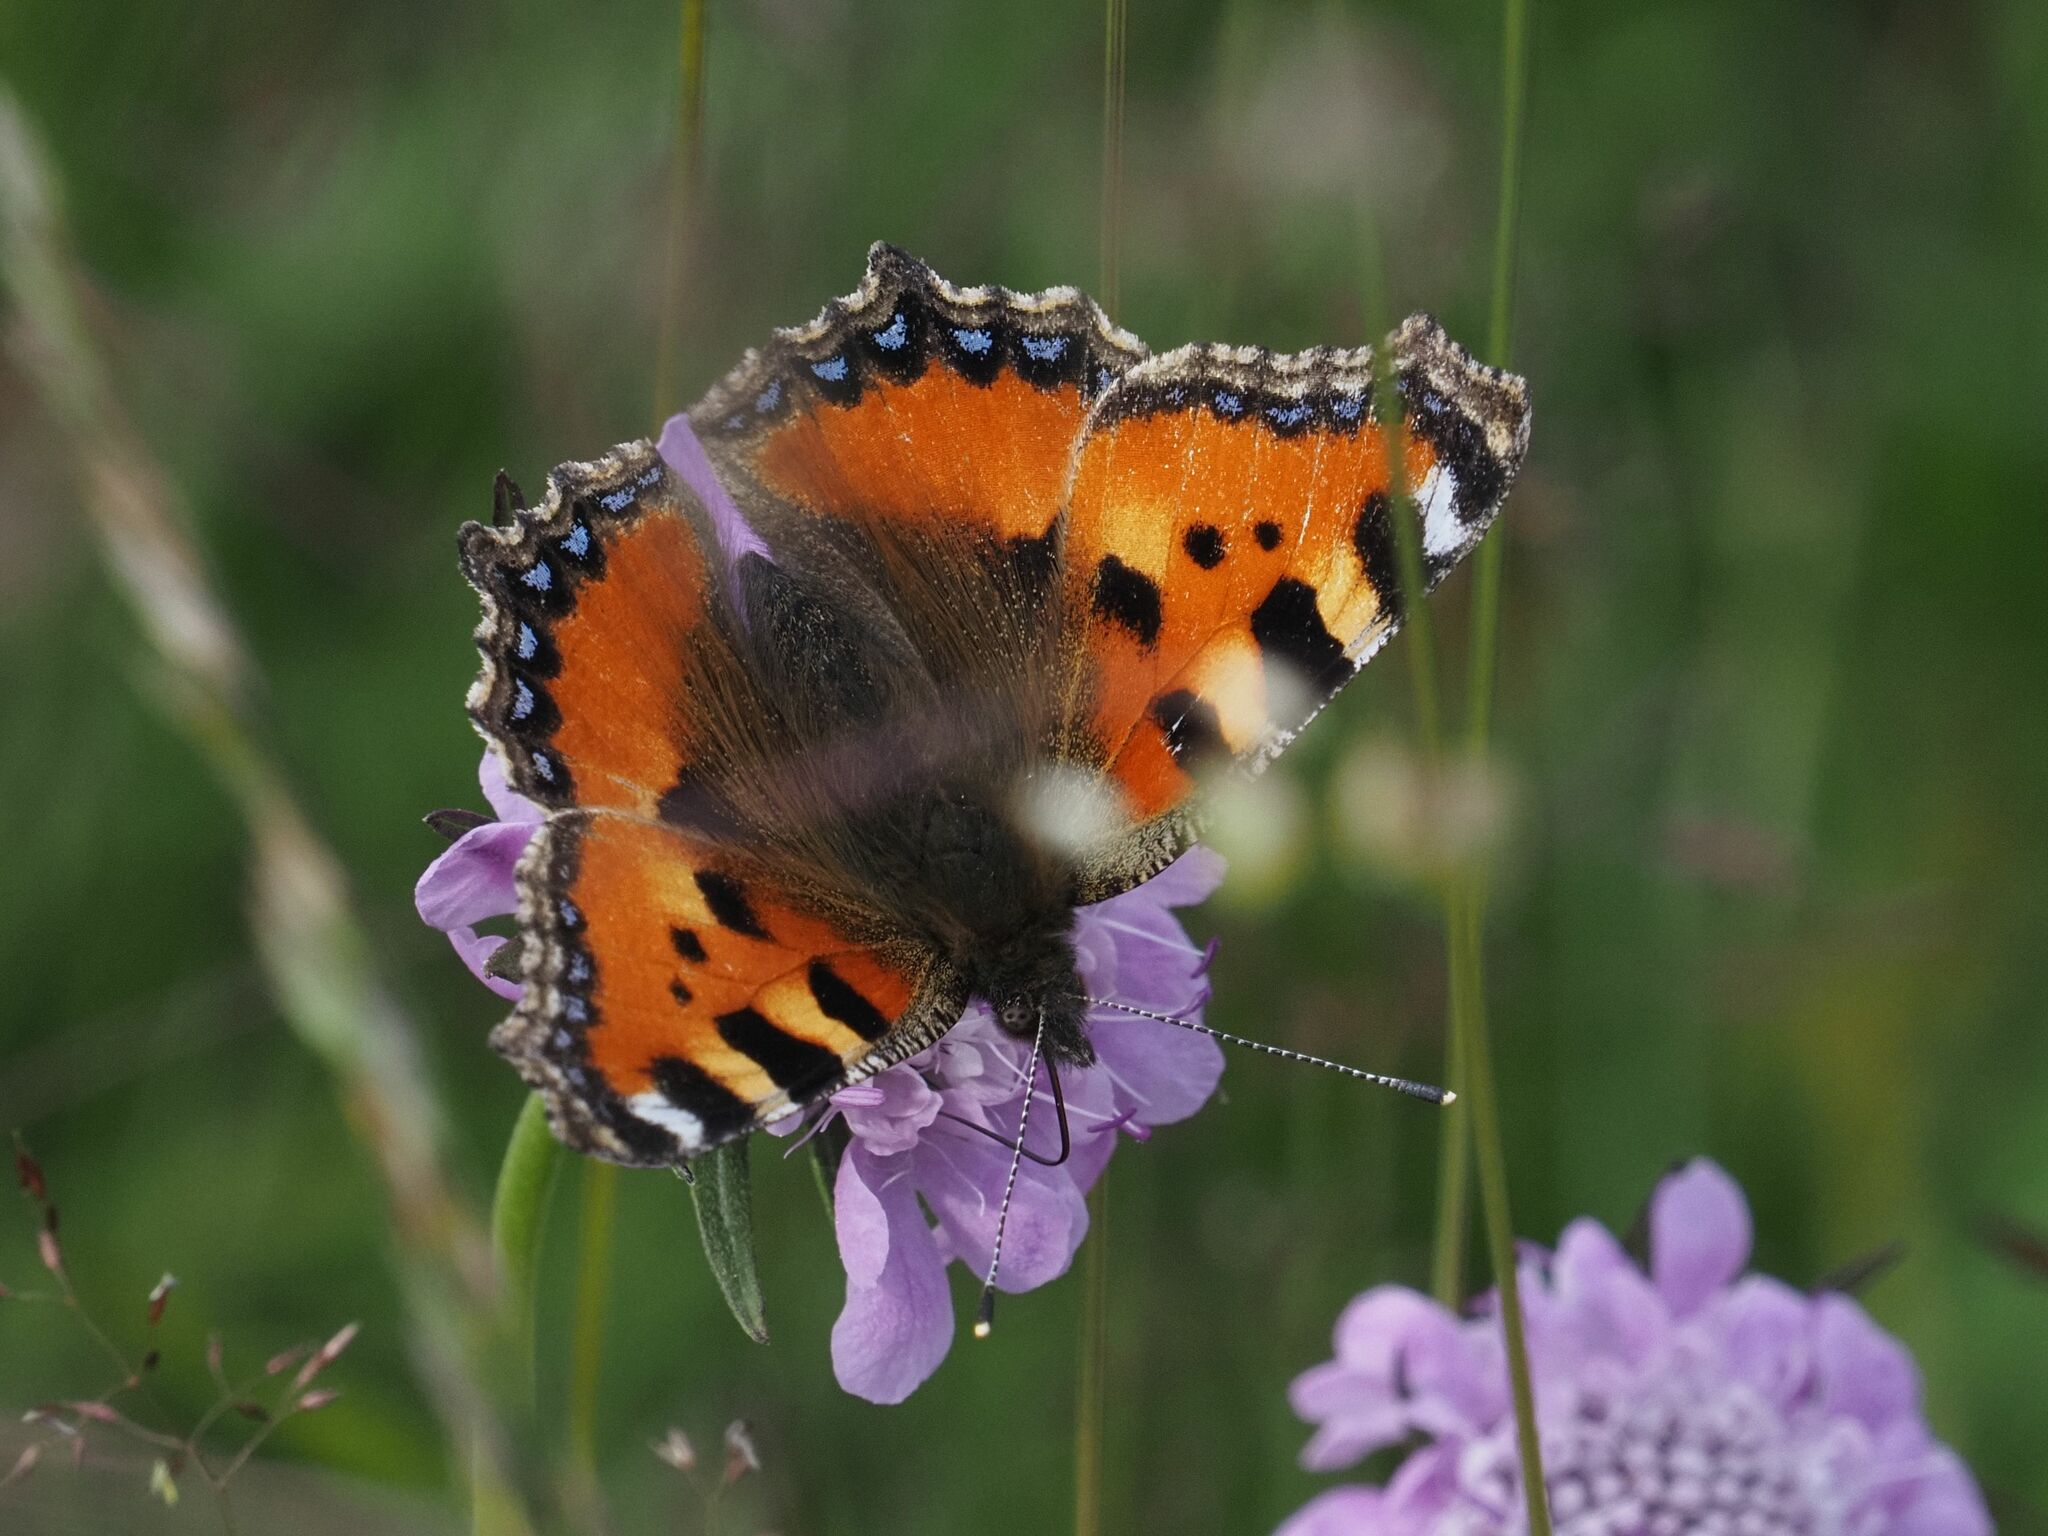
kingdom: Animalia
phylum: Arthropoda
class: Insecta
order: Lepidoptera
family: Nymphalidae
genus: Aglais
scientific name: Aglais urticae
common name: Small tortoiseshell
